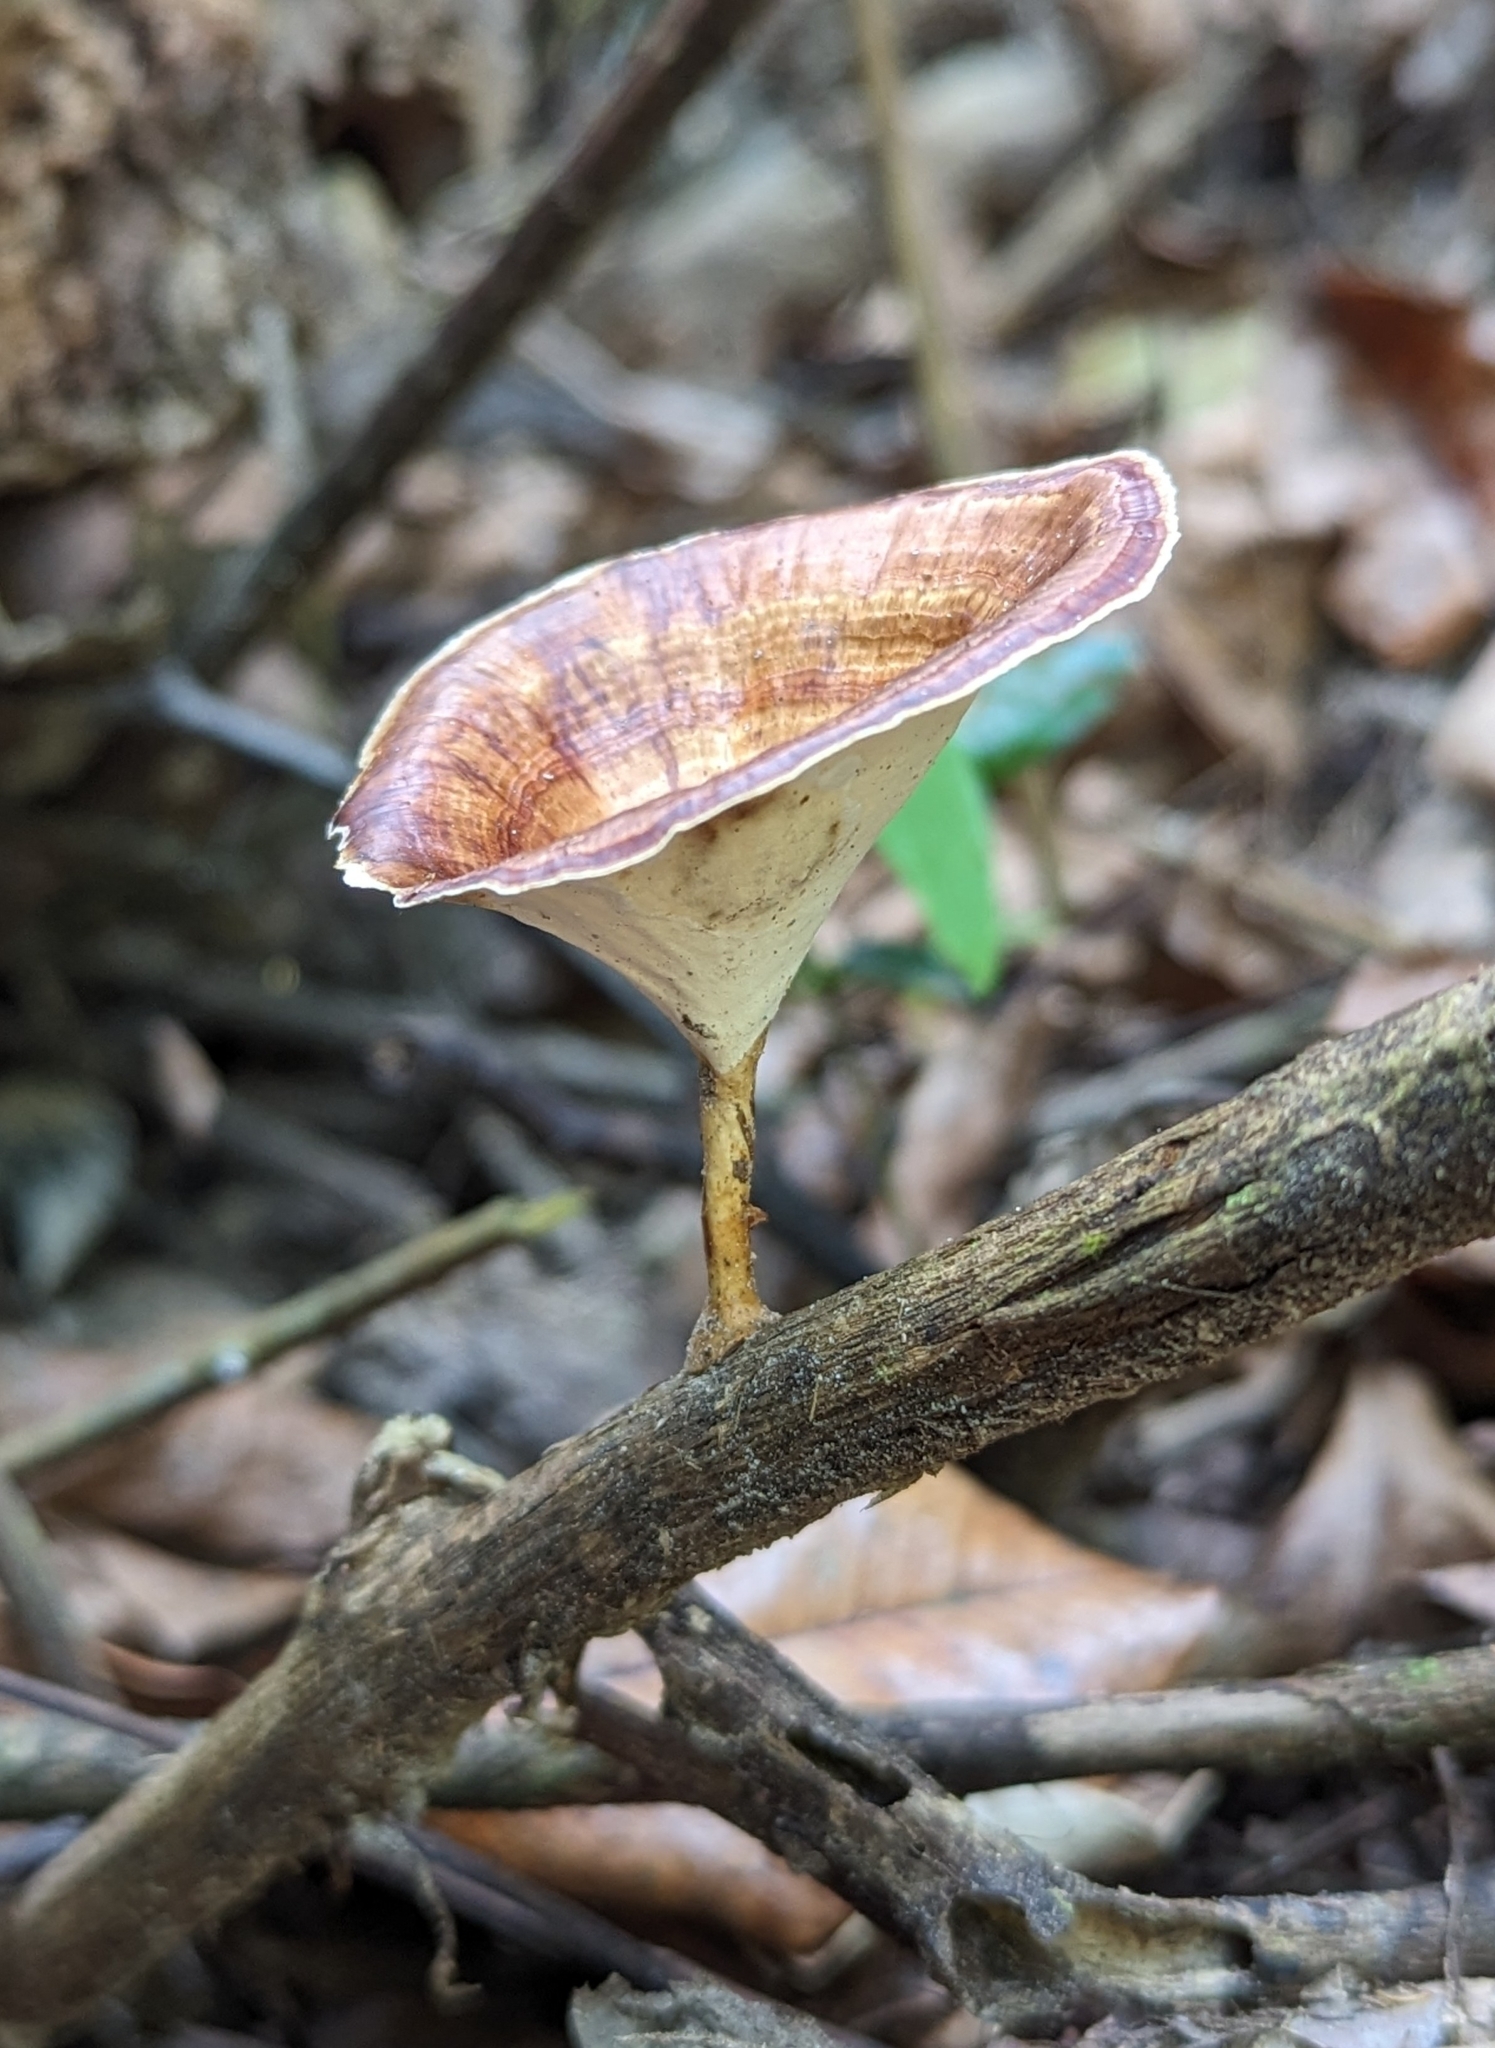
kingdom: Fungi
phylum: Basidiomycota
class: Agaricomycetes
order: Polyporales
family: Polyporaceae
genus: Microporus
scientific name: Microporus xanthopus
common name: Yellow-stemmed micropore
